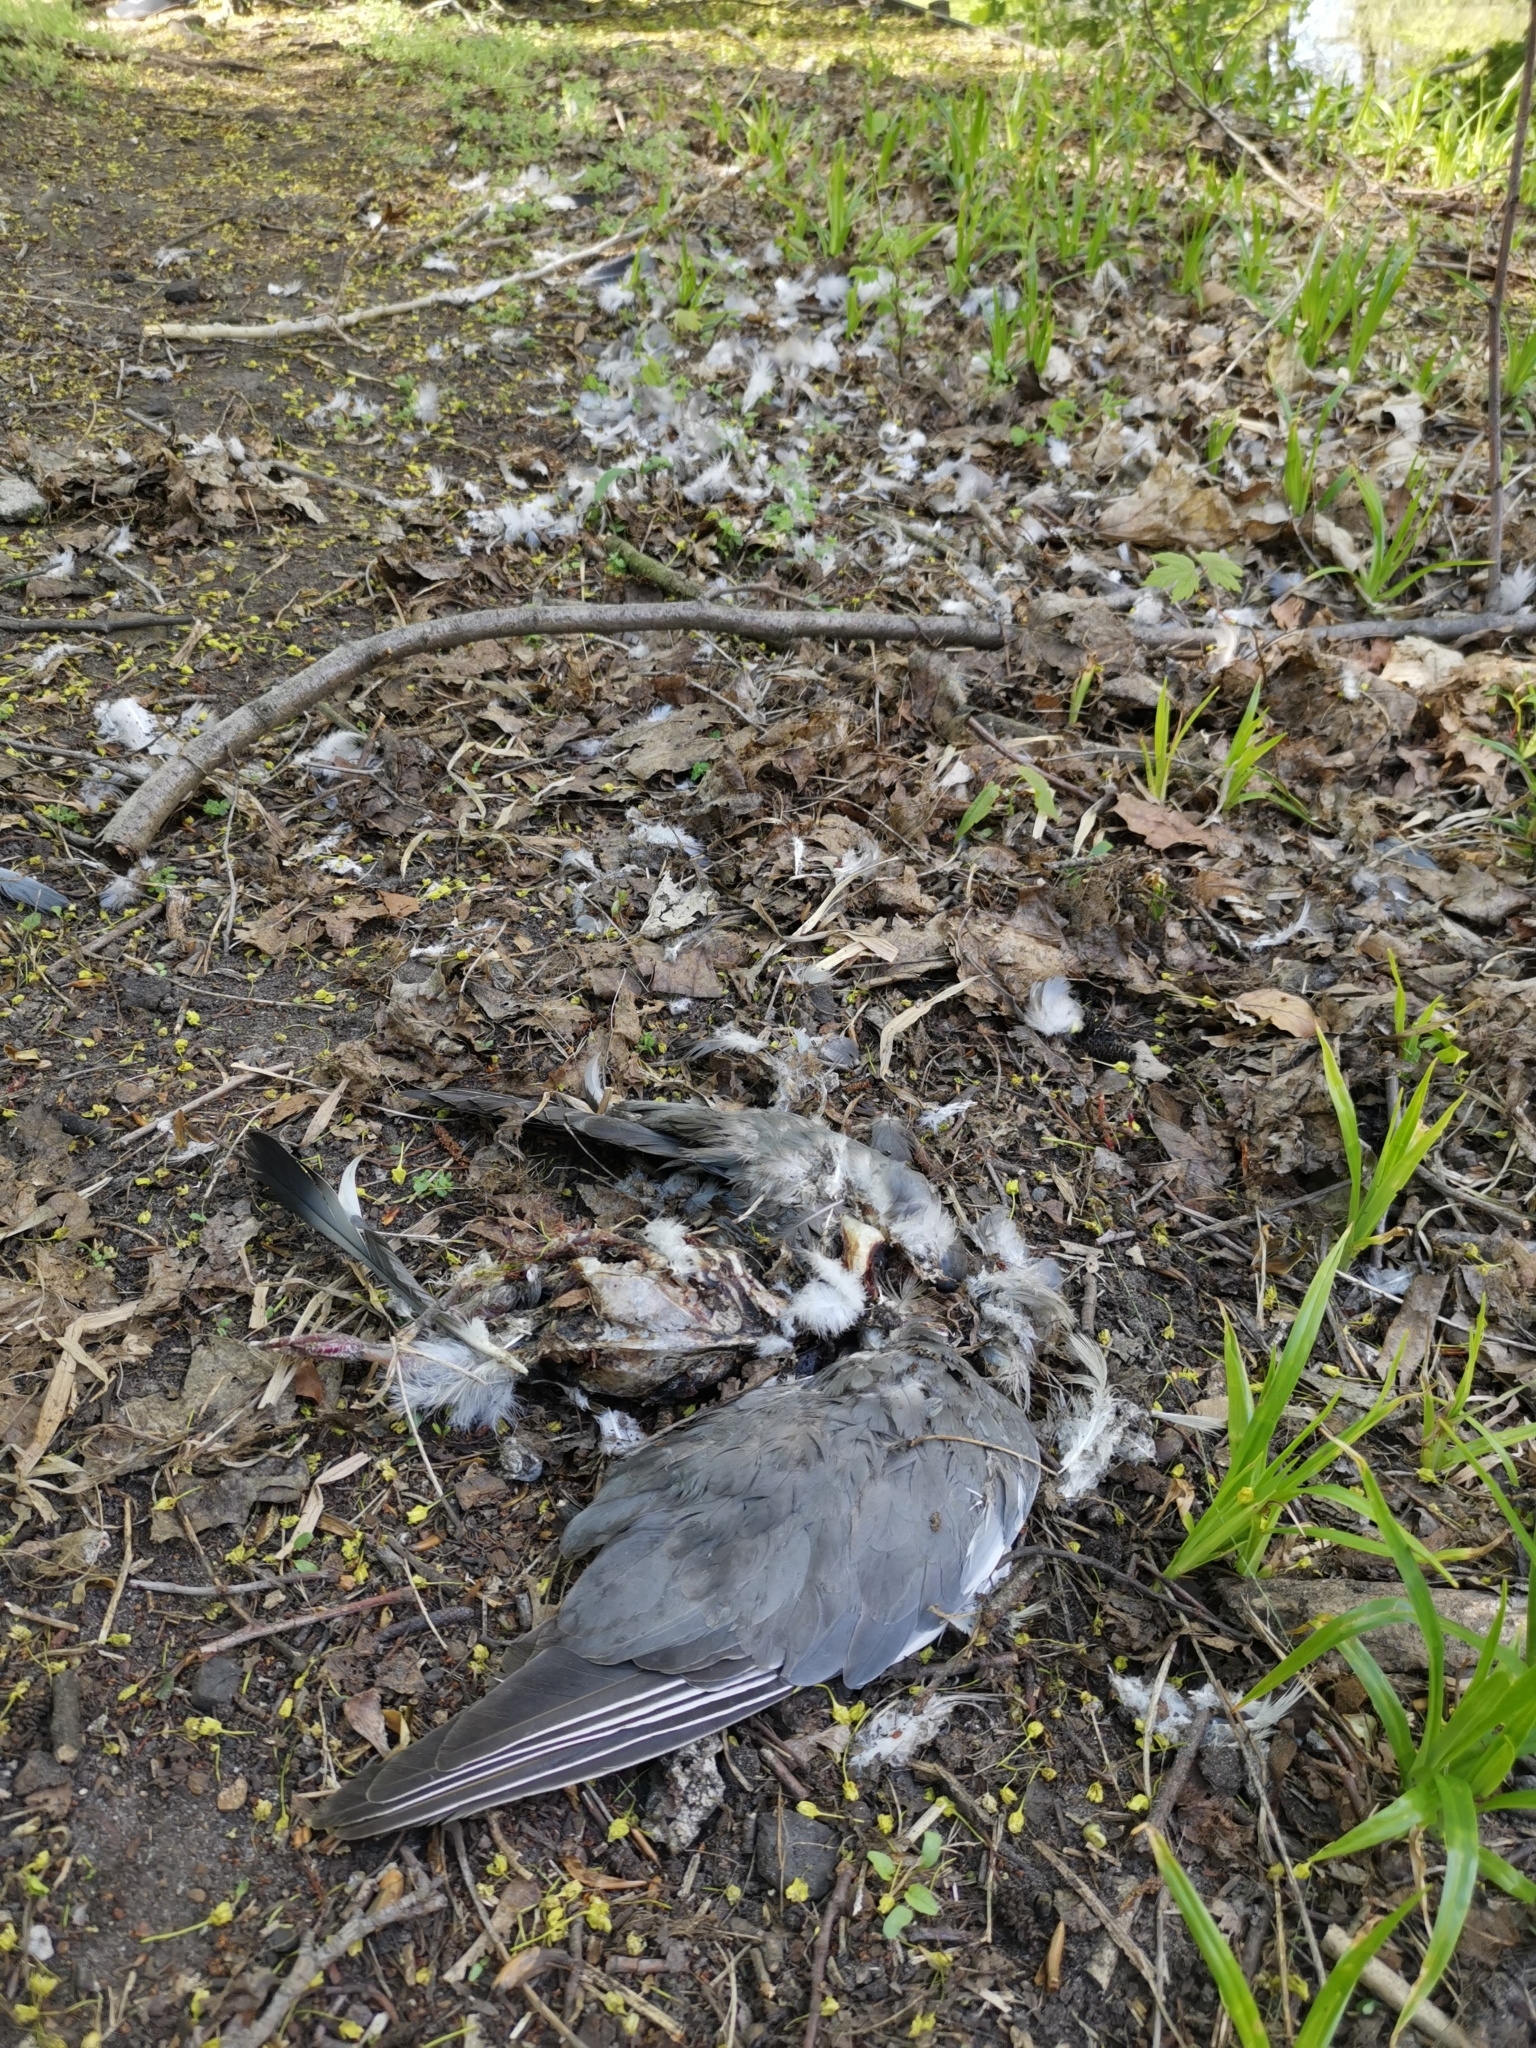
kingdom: Animalia
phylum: Chordata
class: Aves
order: Columbiformes
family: Columbidae
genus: Columba
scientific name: Columba palumbus
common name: Common wood pigeon
